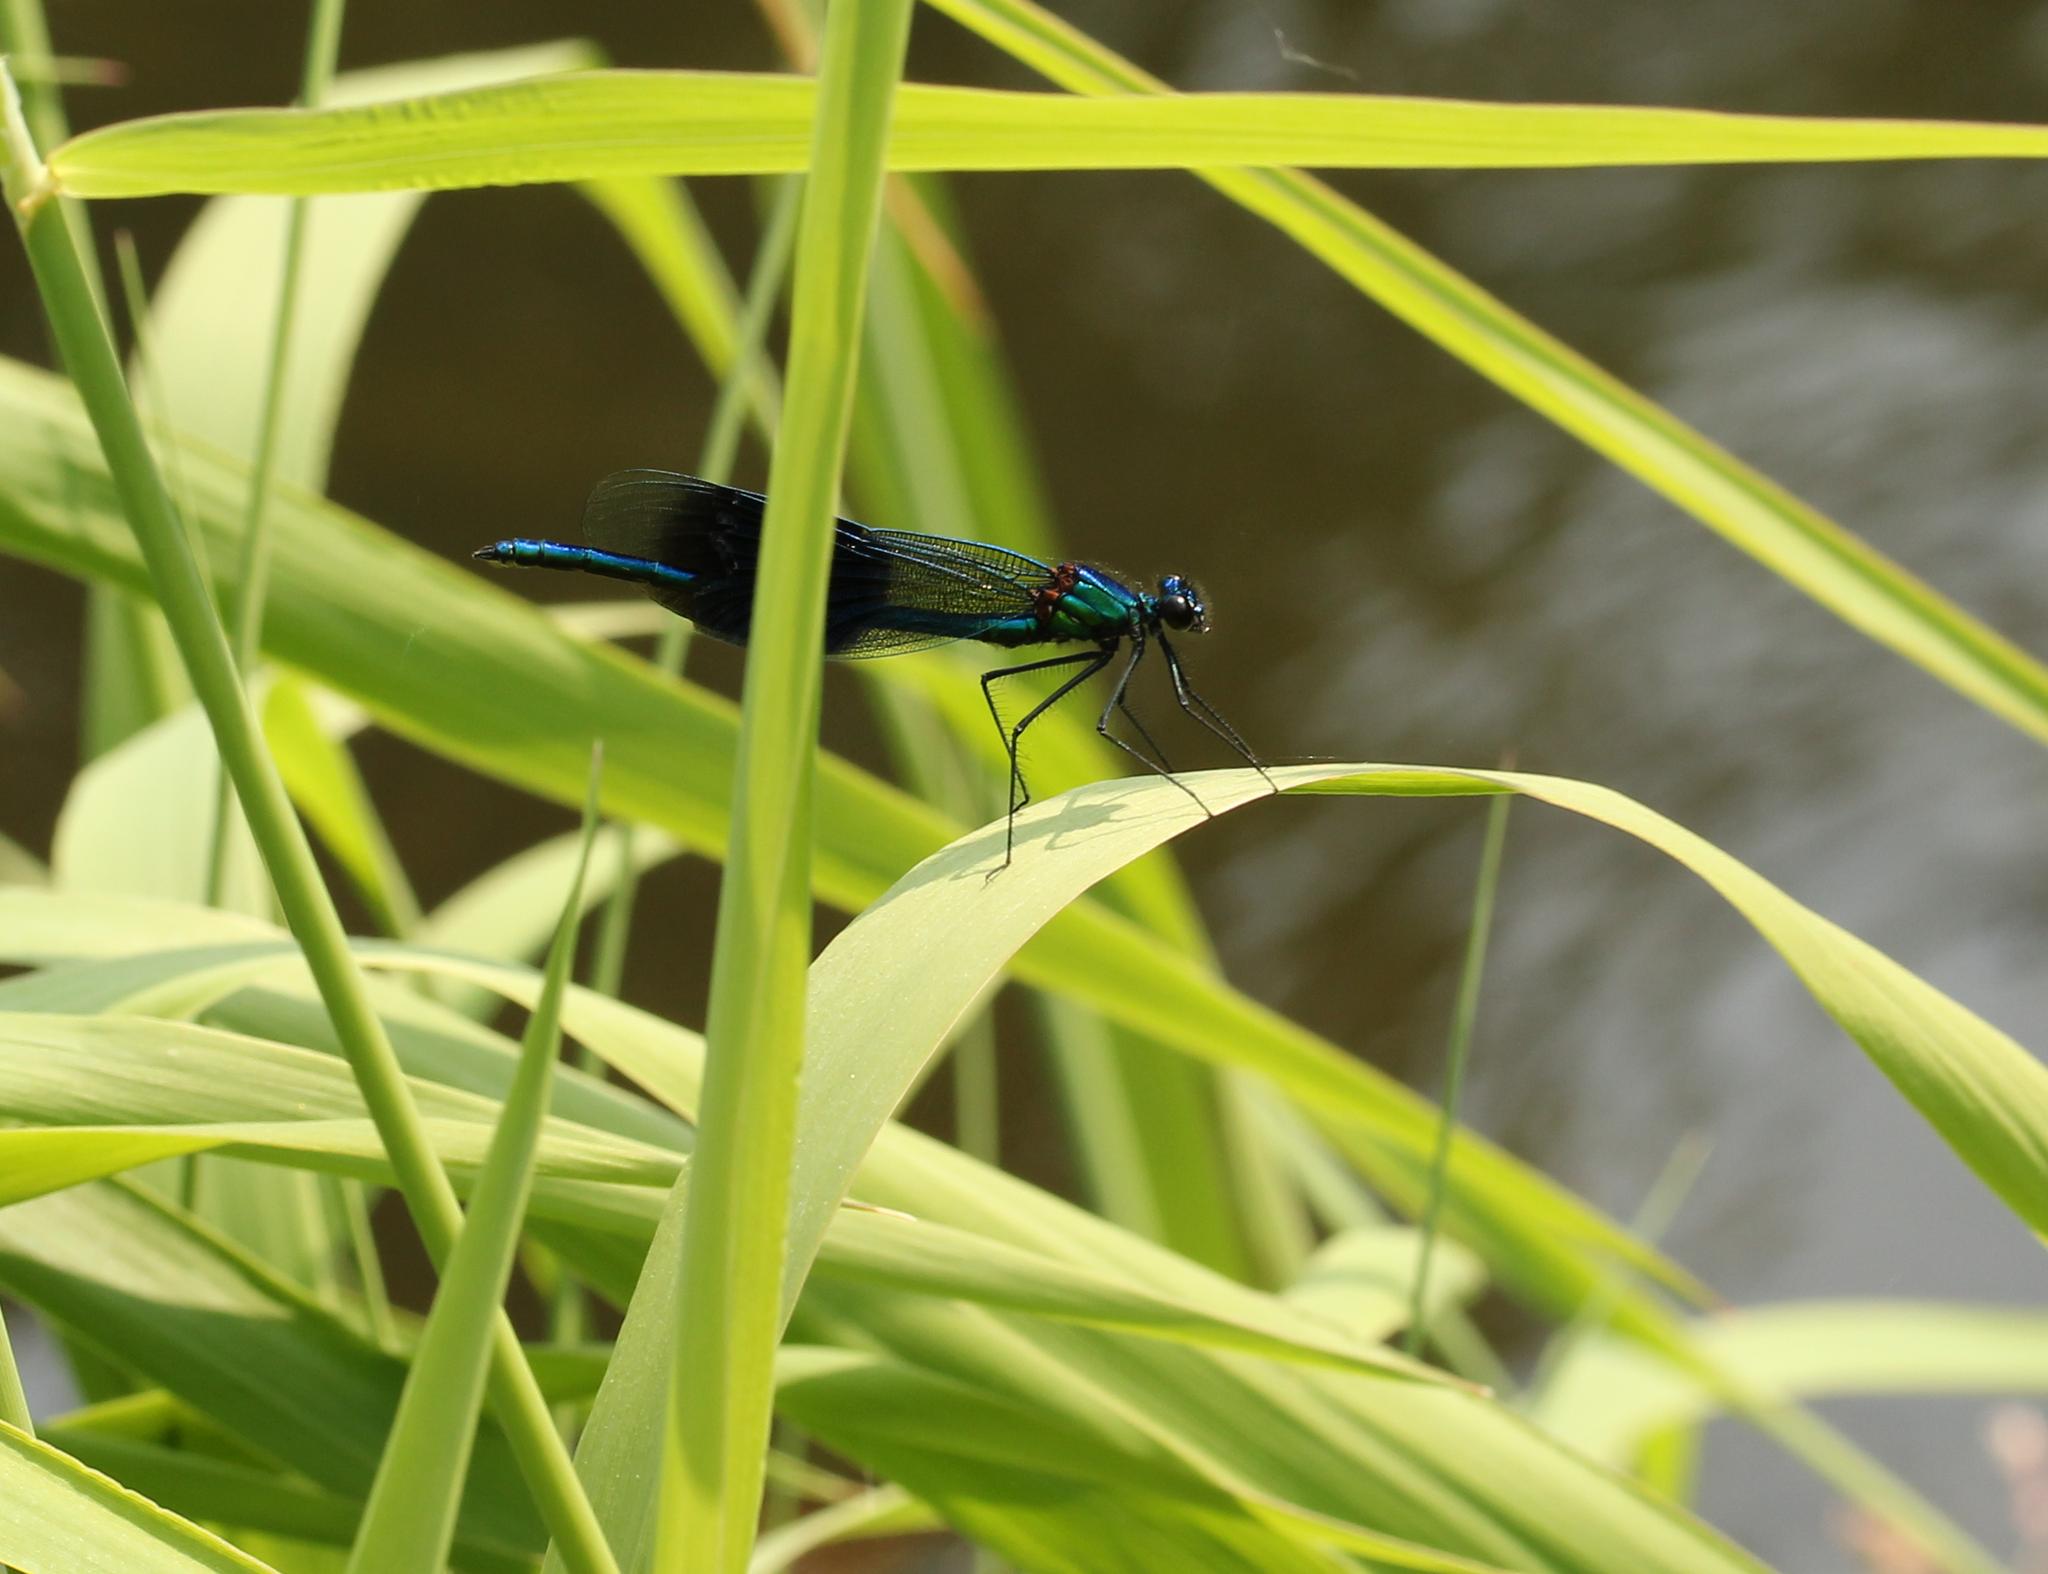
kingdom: Animalia
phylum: Arthropoda
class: Insecta
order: Odonata
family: Calopterygidae
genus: Calopteryx
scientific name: Calopteryx splendens
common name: Banded demoiselle
